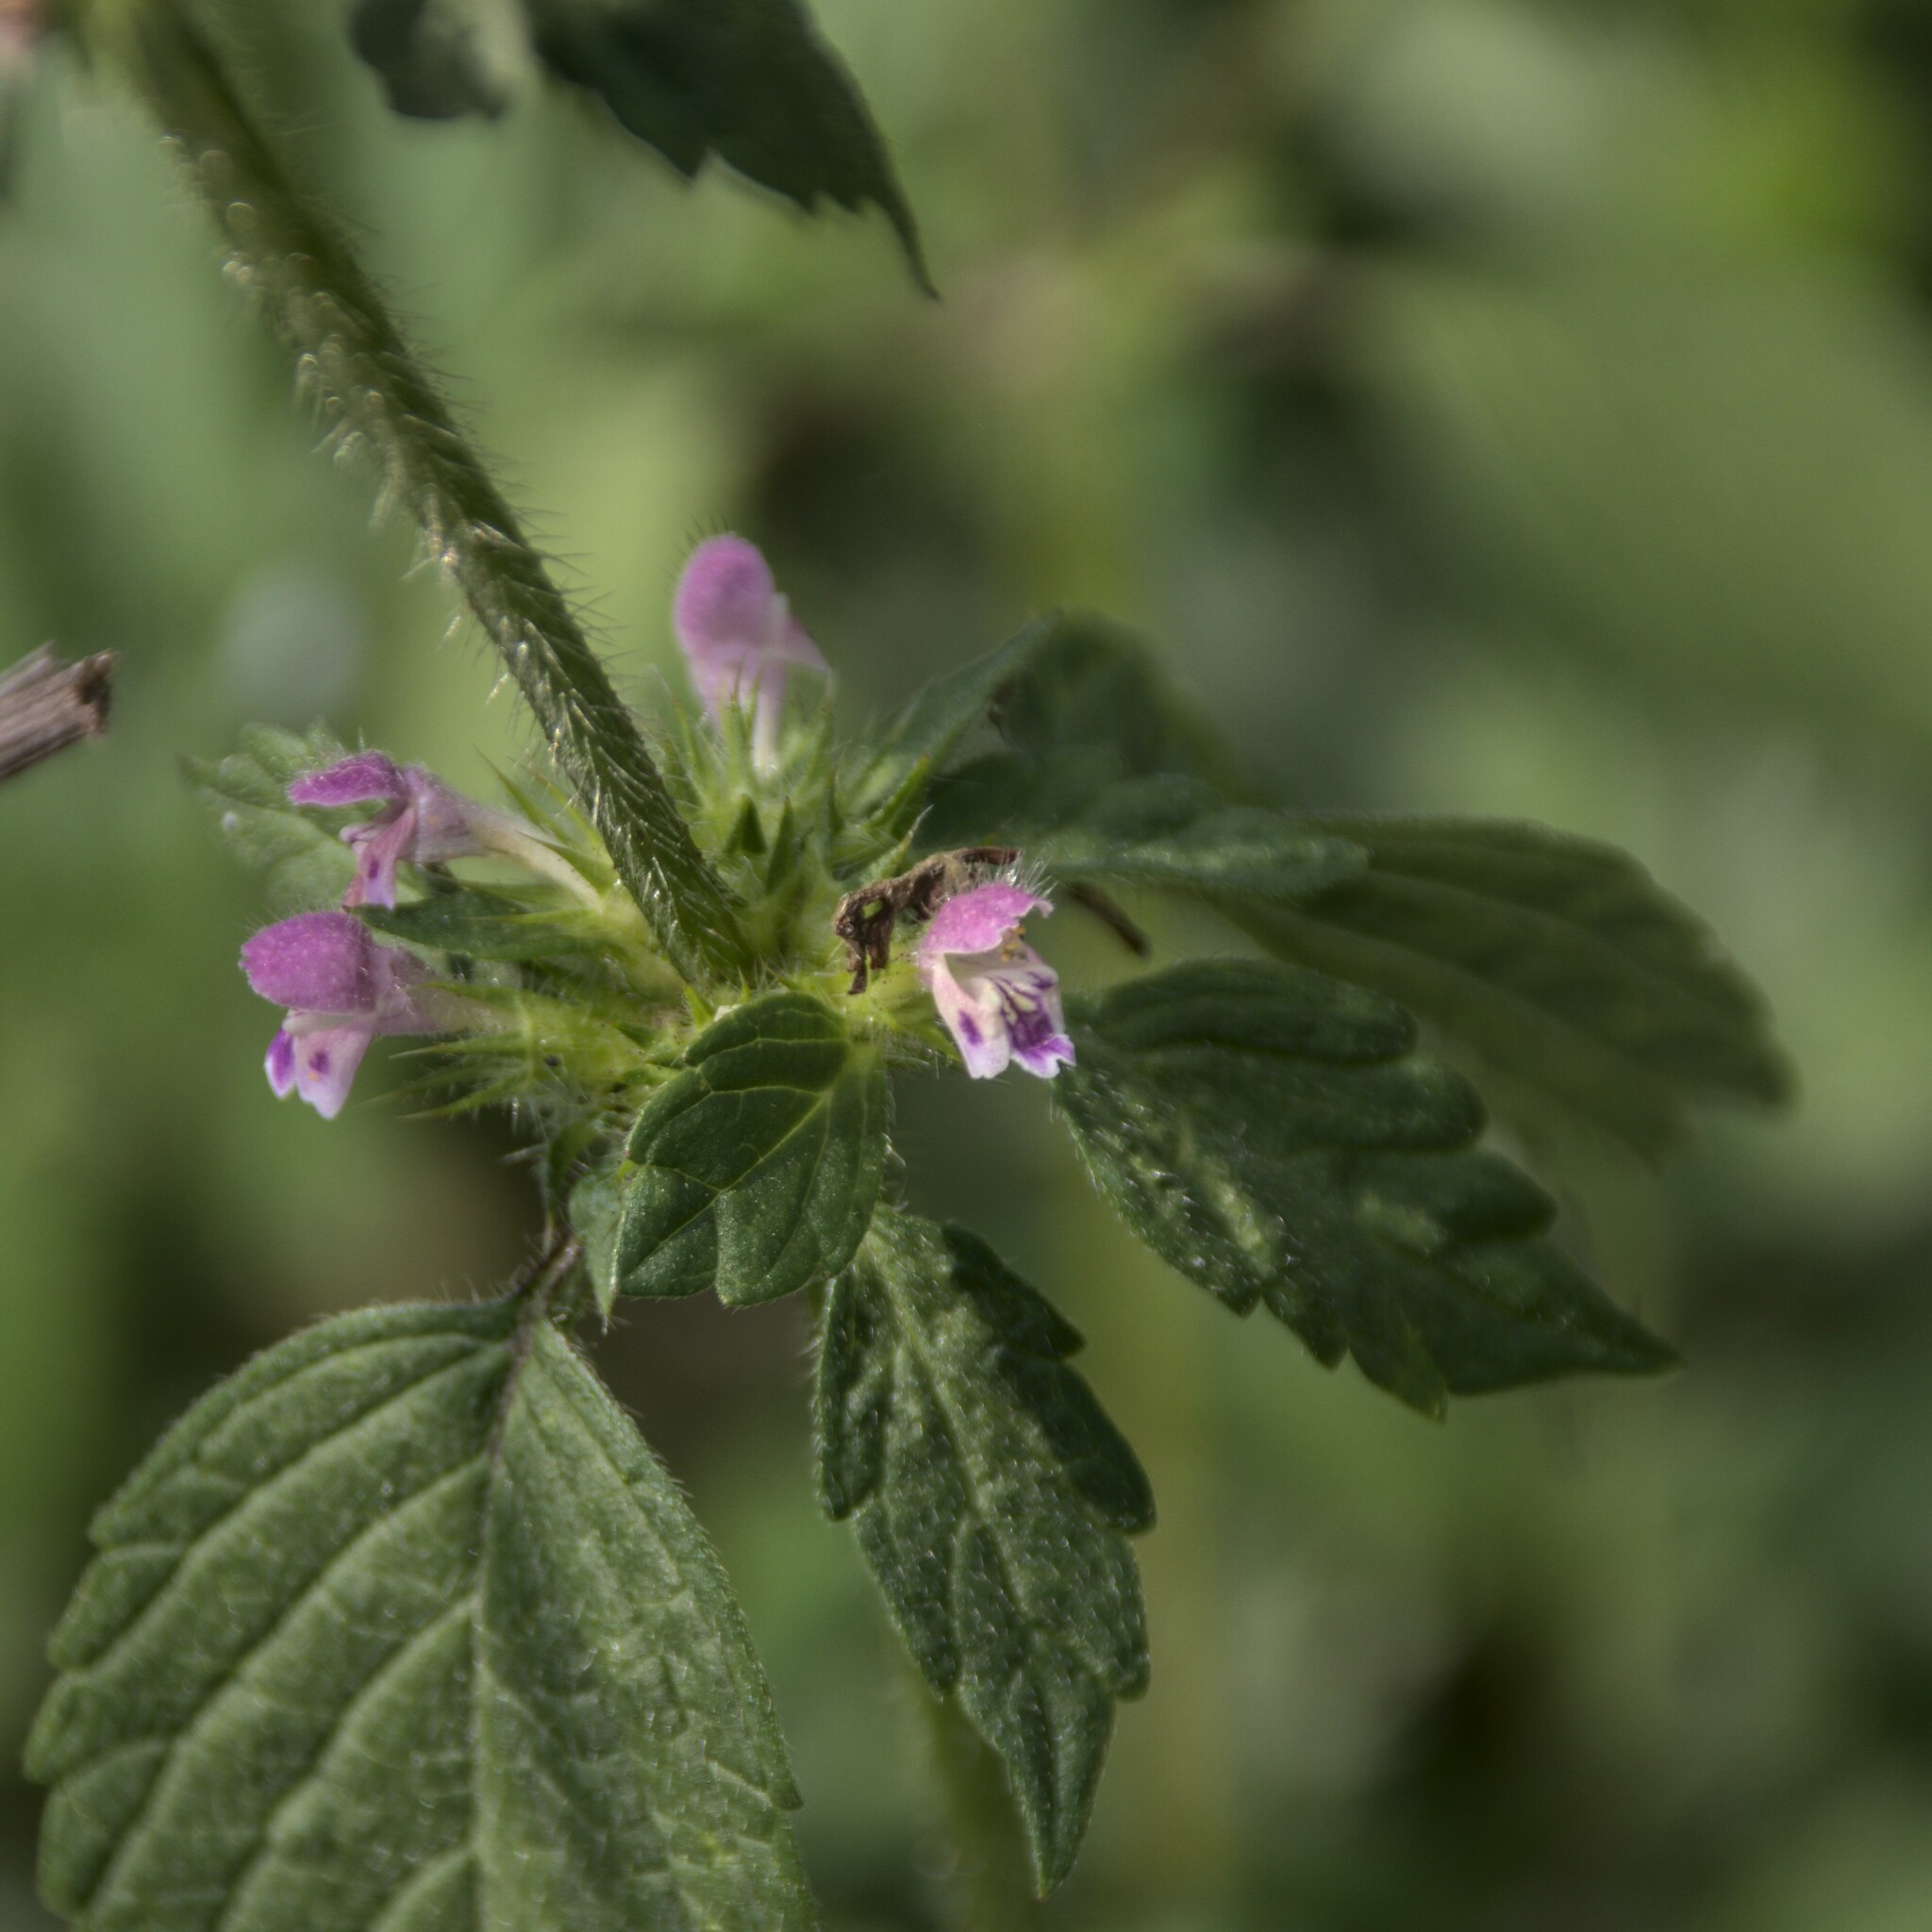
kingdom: Plantae
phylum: Tracheophyta
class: Magnoliopsida
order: Lamiales
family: Lamiaceae
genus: Galeopsis
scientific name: Galeopsis bifida
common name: Bifid hemp-nettle
